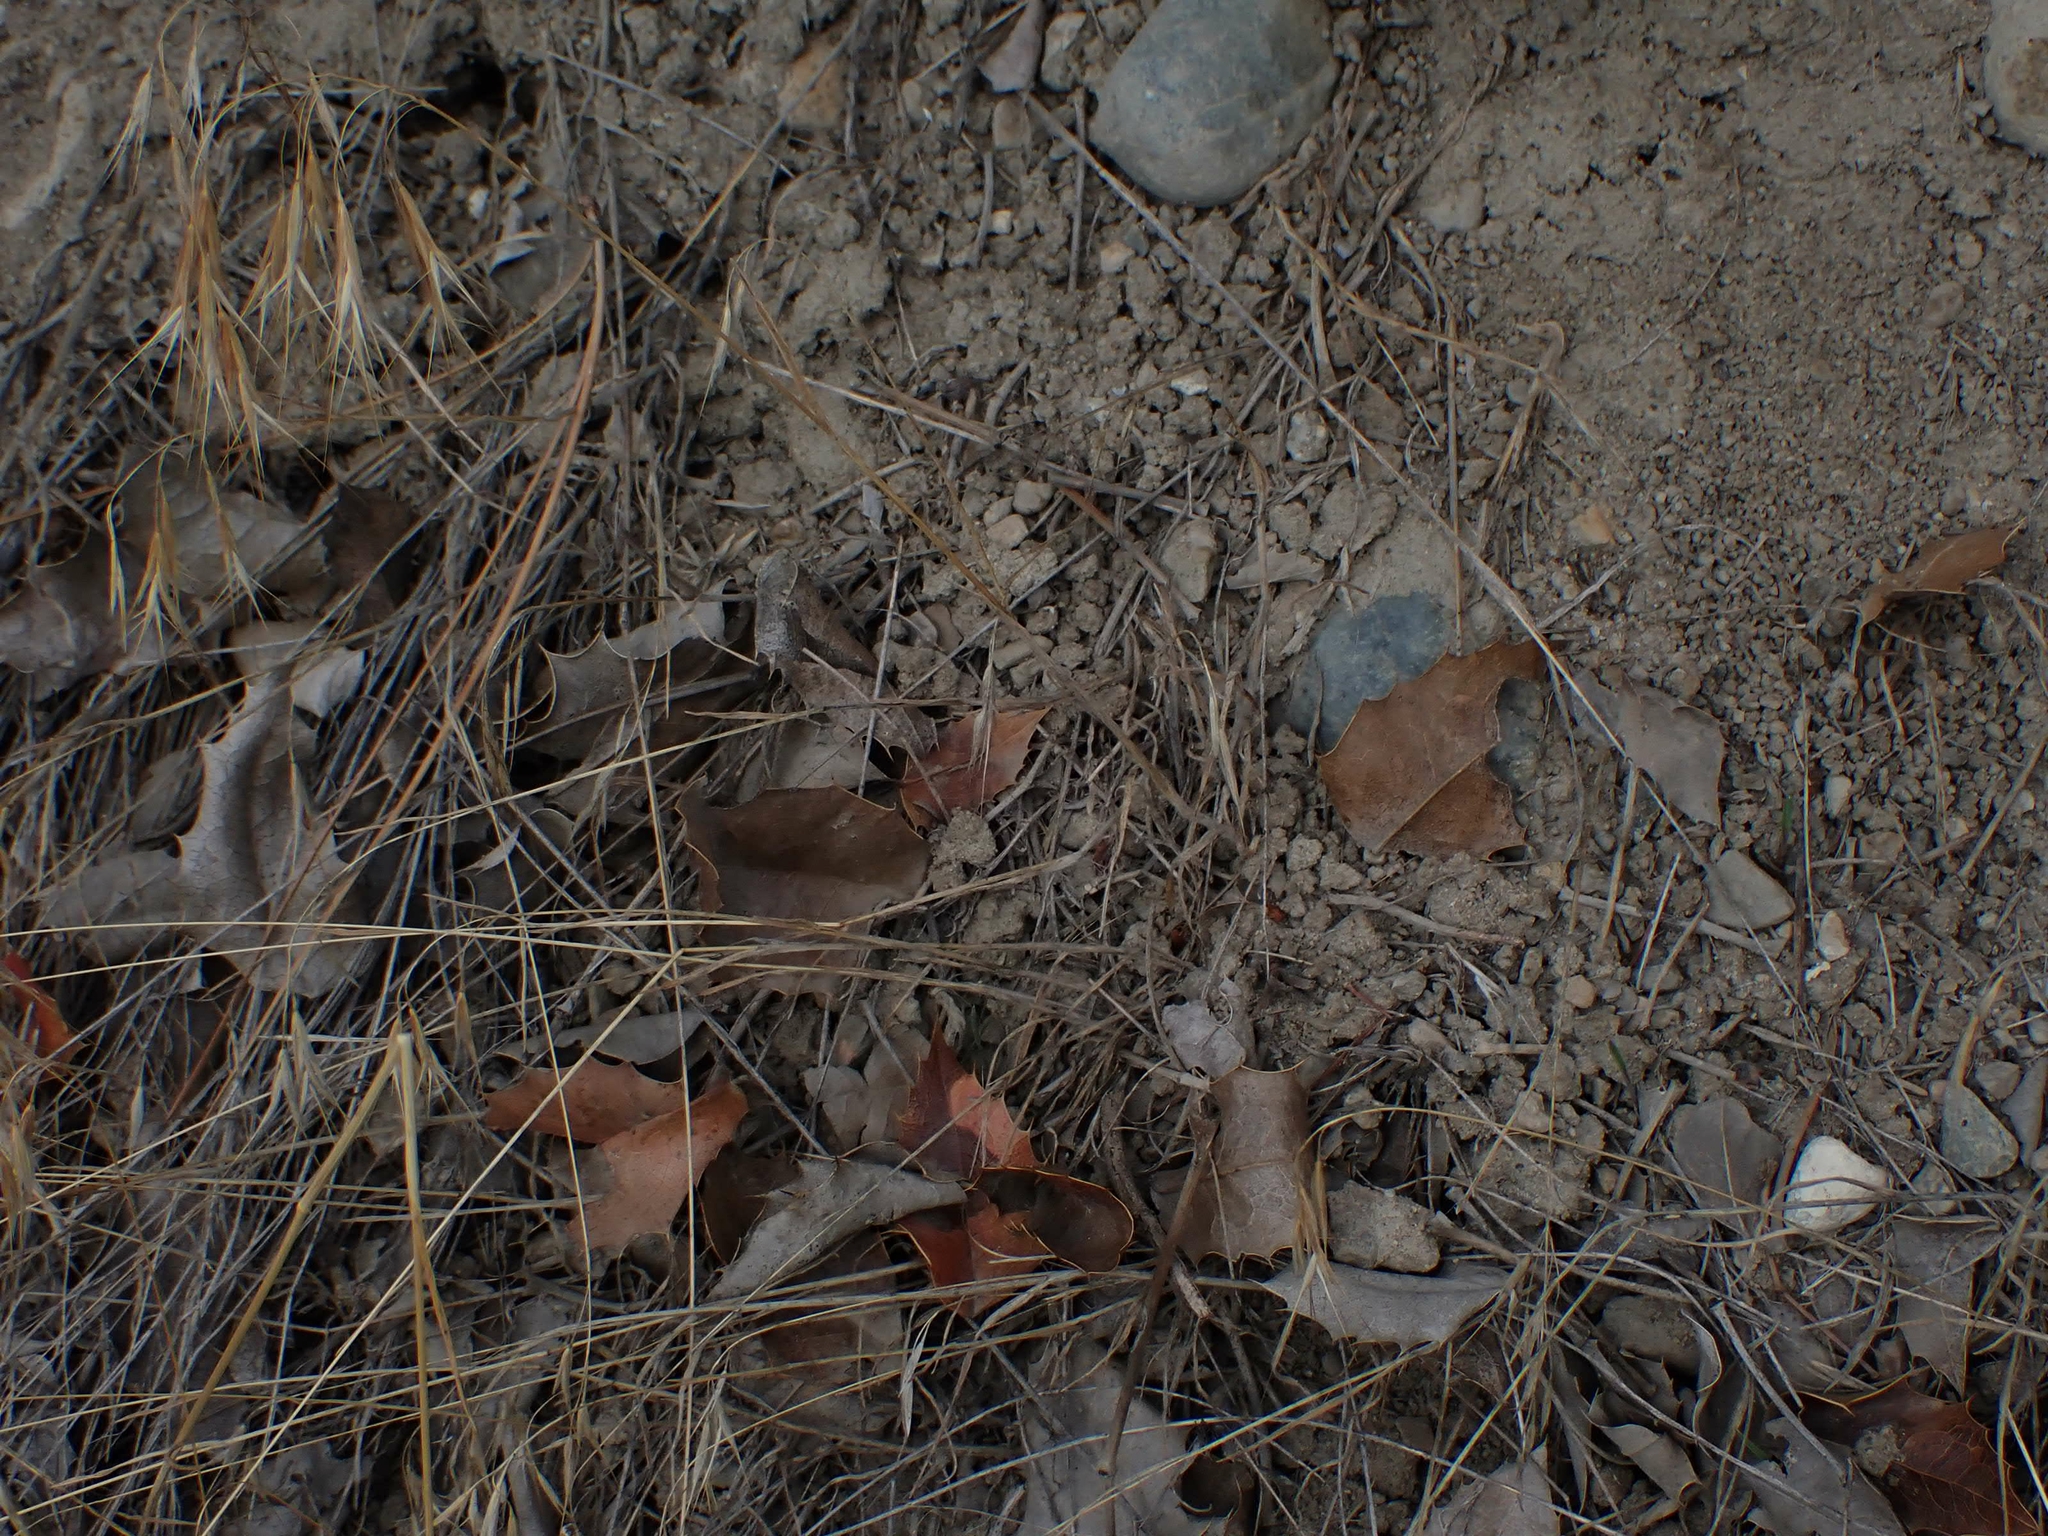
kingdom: Plantae
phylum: Tracheophyta
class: Liliopsida
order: Poales
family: Poaceae
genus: Bromus
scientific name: Bromus tectorum
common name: Cheatgrass
